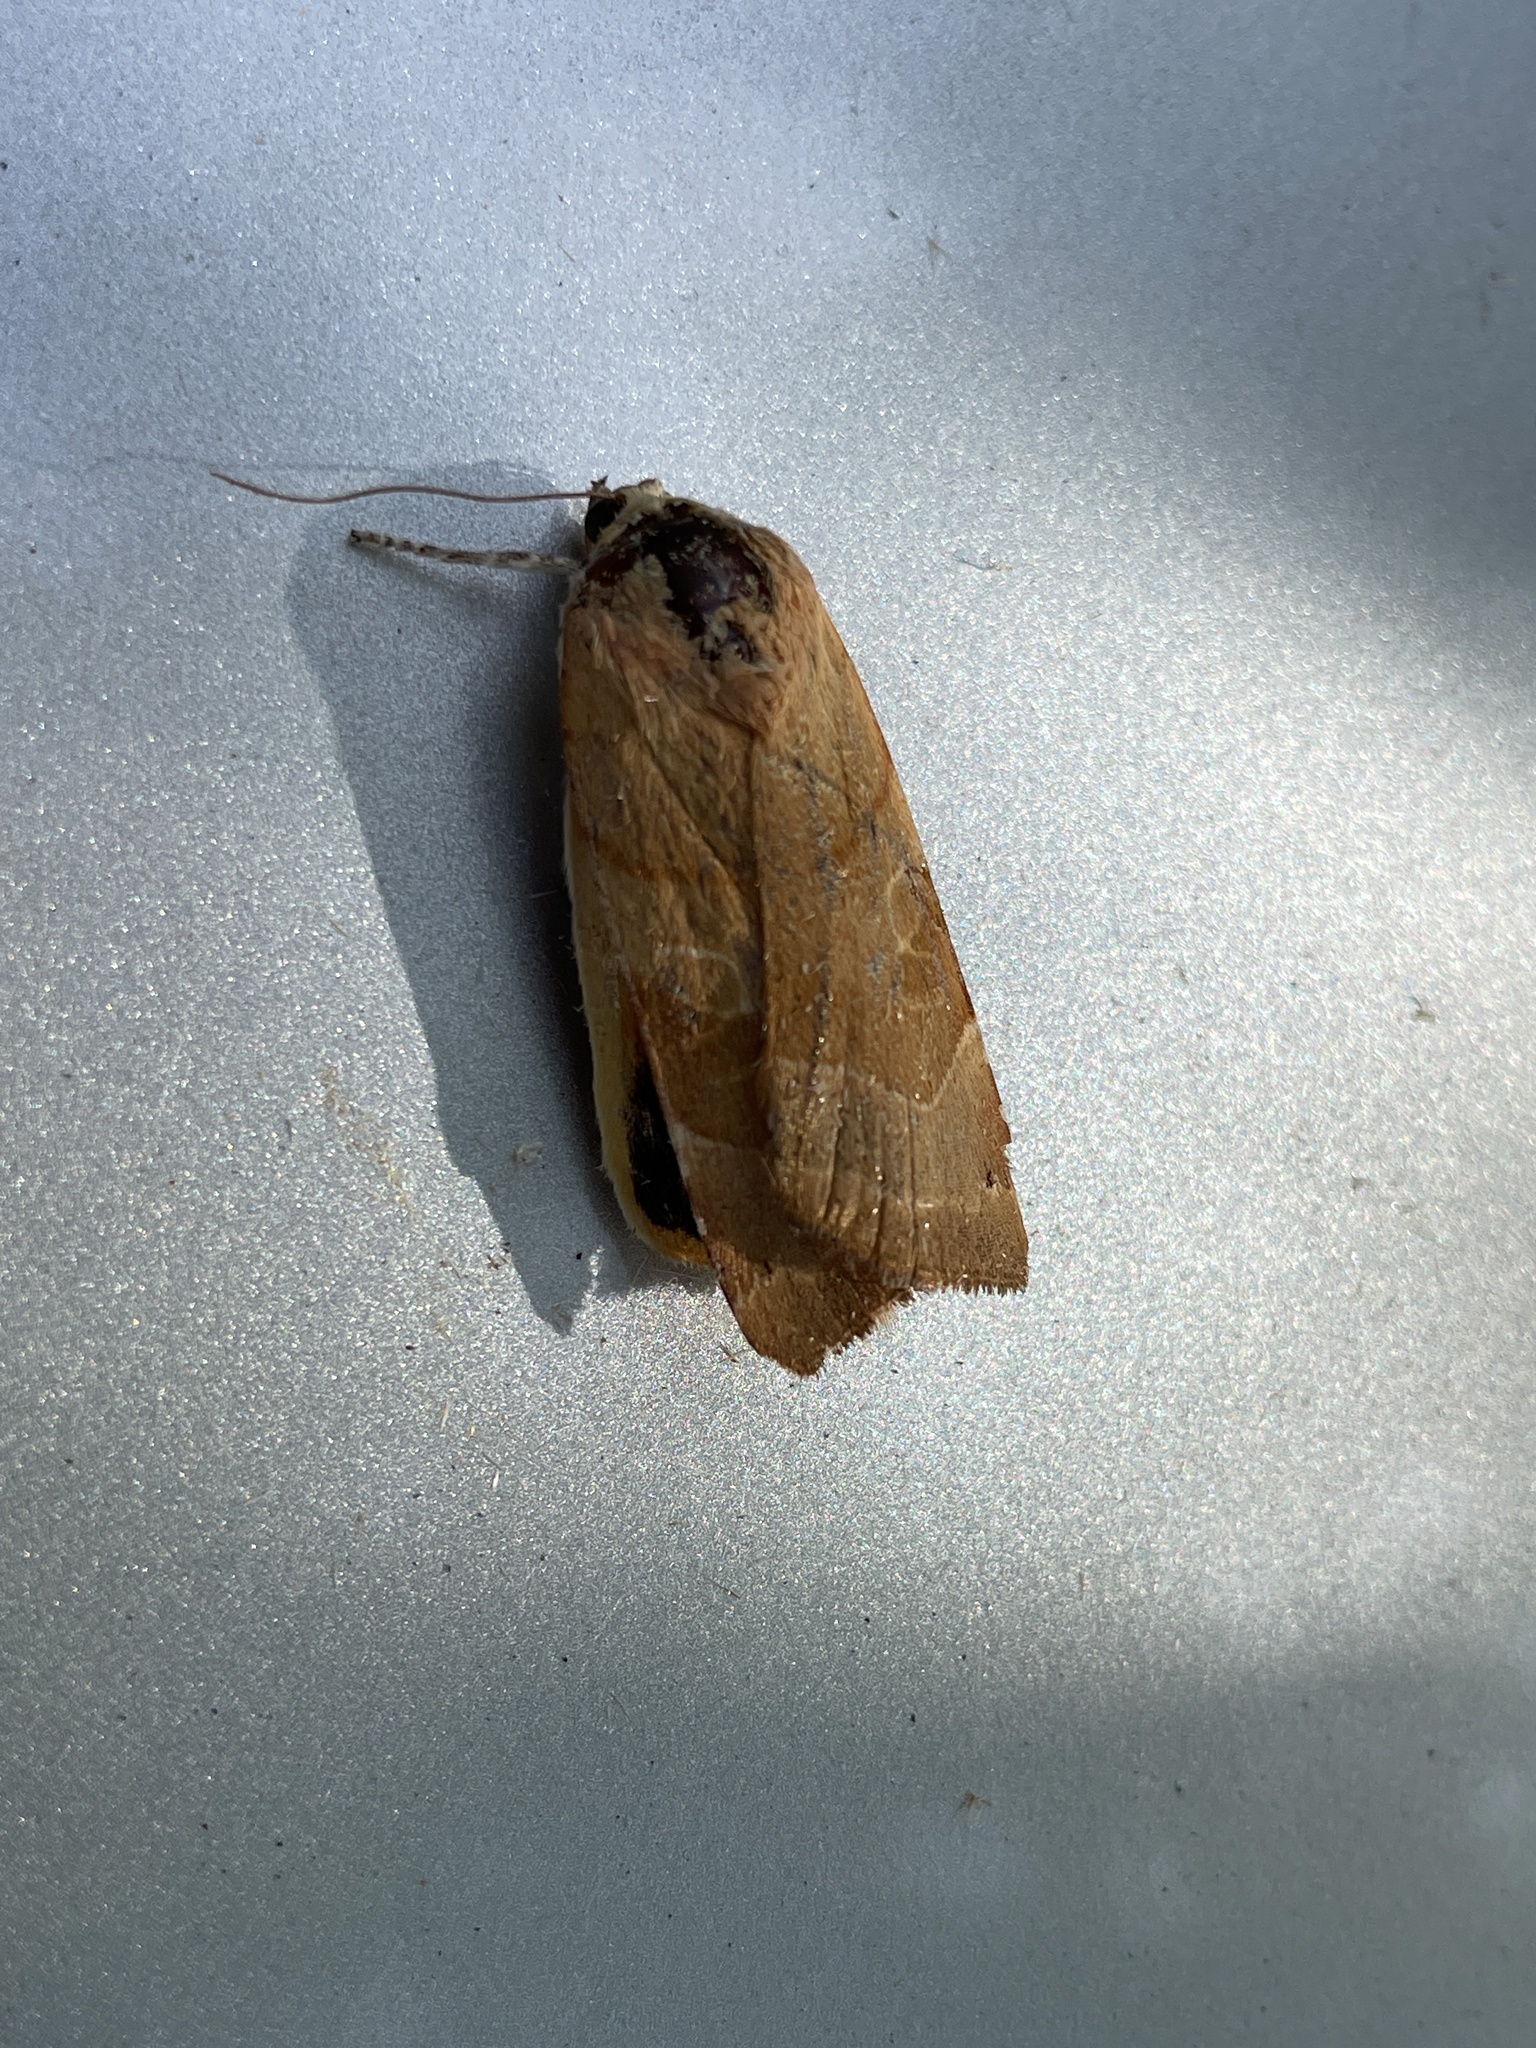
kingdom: Animalia
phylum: Arthropoda
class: Insecta
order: Lepidoptera
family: Noctuidae
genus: Noctua
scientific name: Noctua fimbriata
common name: Broad-bordered yellow underwing
